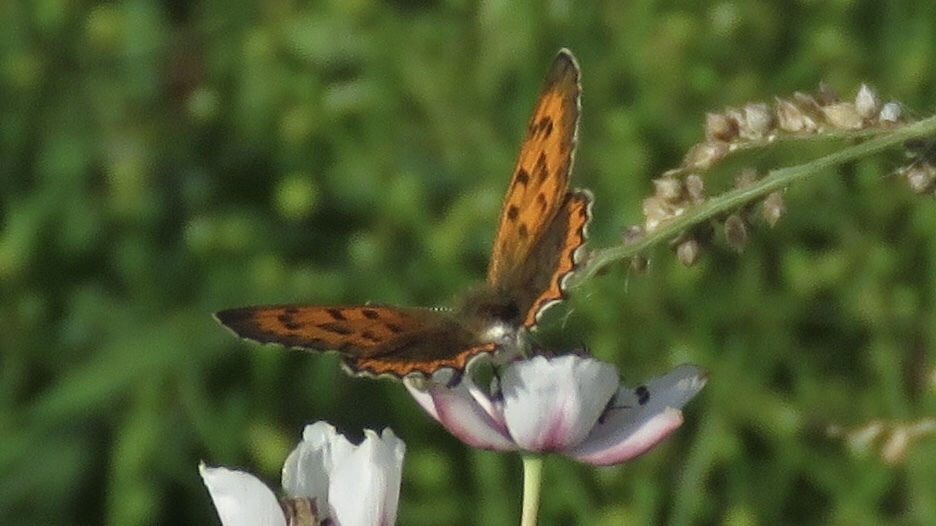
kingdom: Animalia
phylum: Arthropoda
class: Insecta
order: Lepidoptera
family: Lycaenidae
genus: Tharsalea
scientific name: Tharsalea hyllus
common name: Bronze copper
